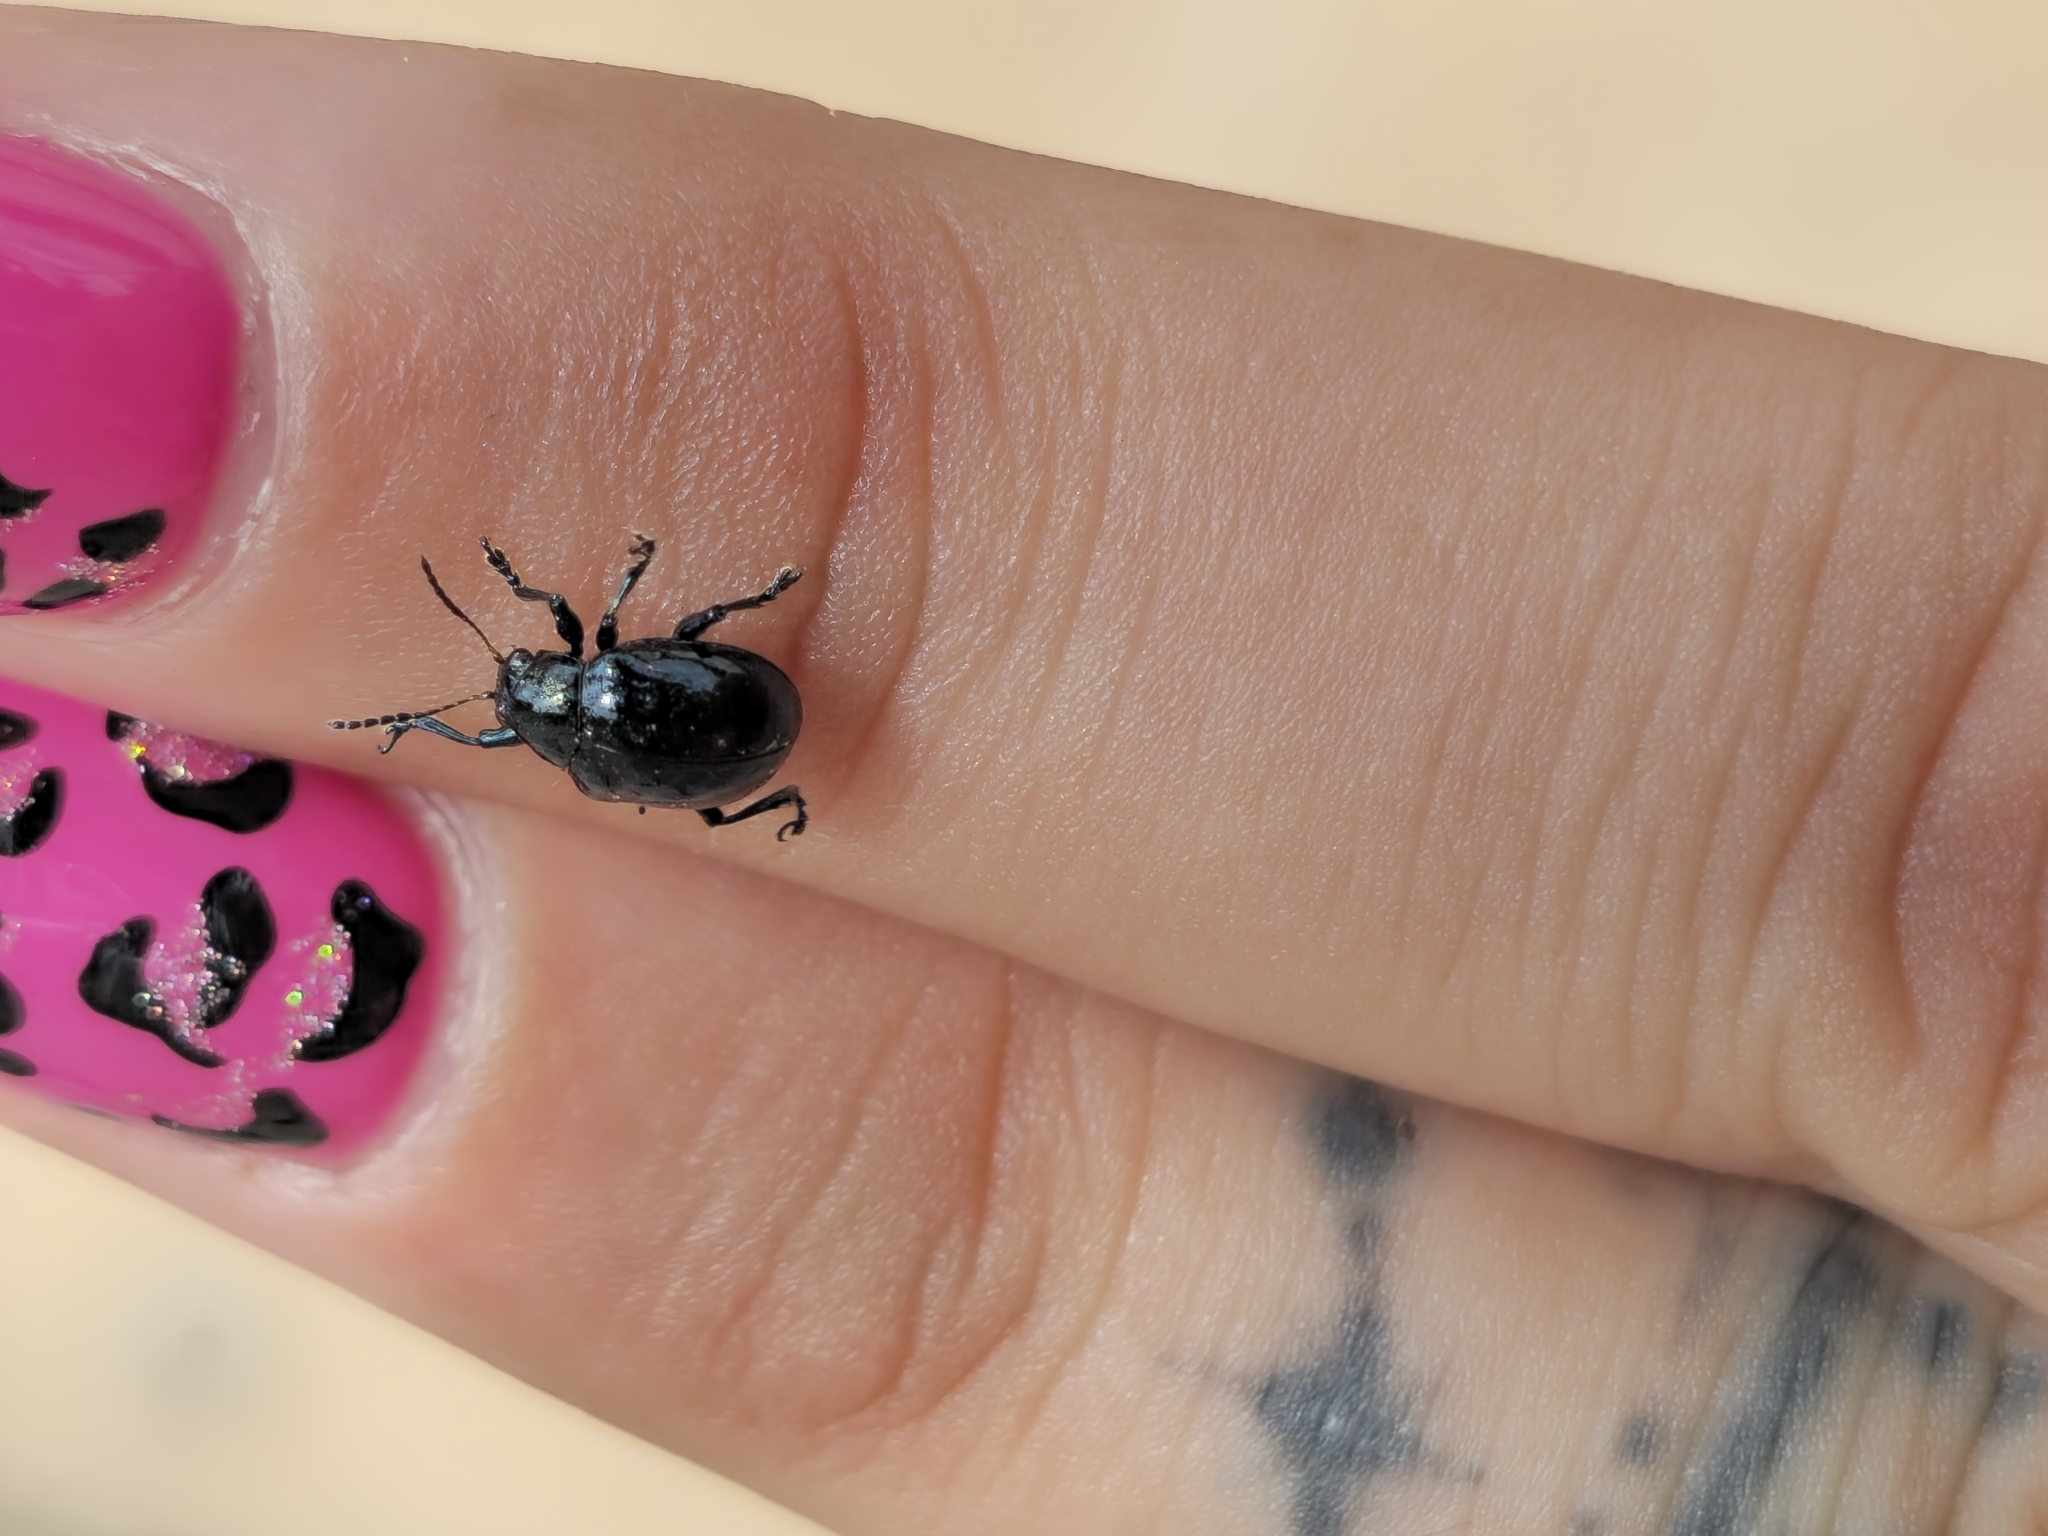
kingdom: Animalia
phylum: Arthropoda
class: Insecta
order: Coleoptera
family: Chrysomelidae
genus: Typophorus
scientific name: Typophorus nigritus
